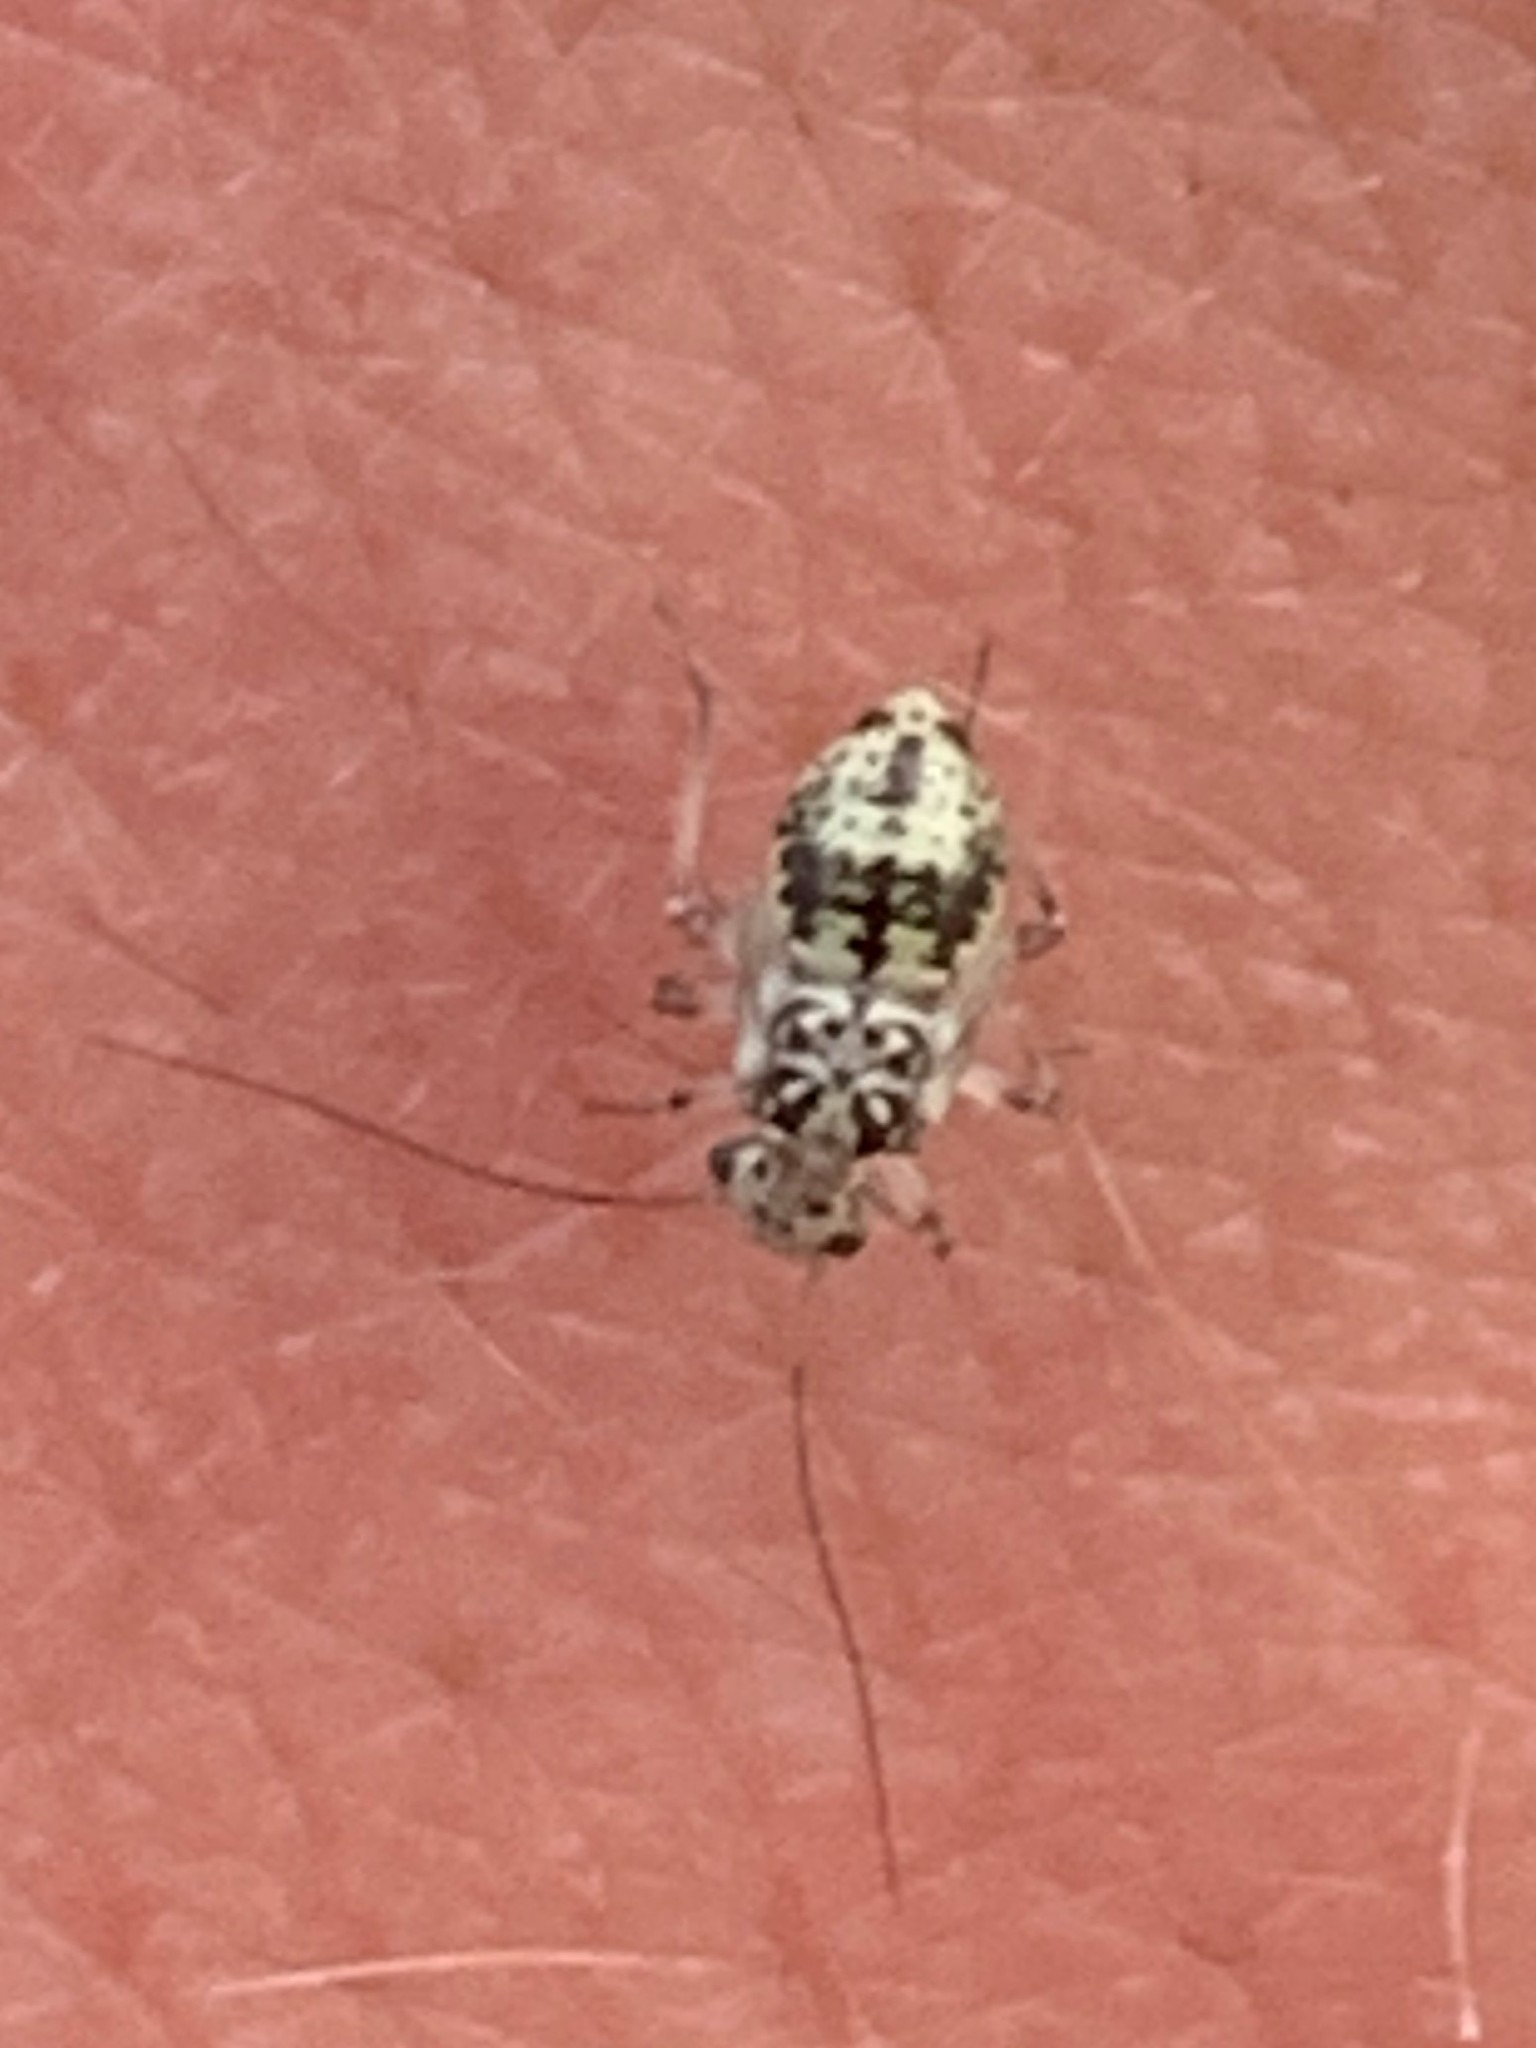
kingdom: Animalia
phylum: Arthropoda
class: Insecta
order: Psocodea
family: Psocidae
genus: Metylophorus
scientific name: Metylophorus novaescotiae
